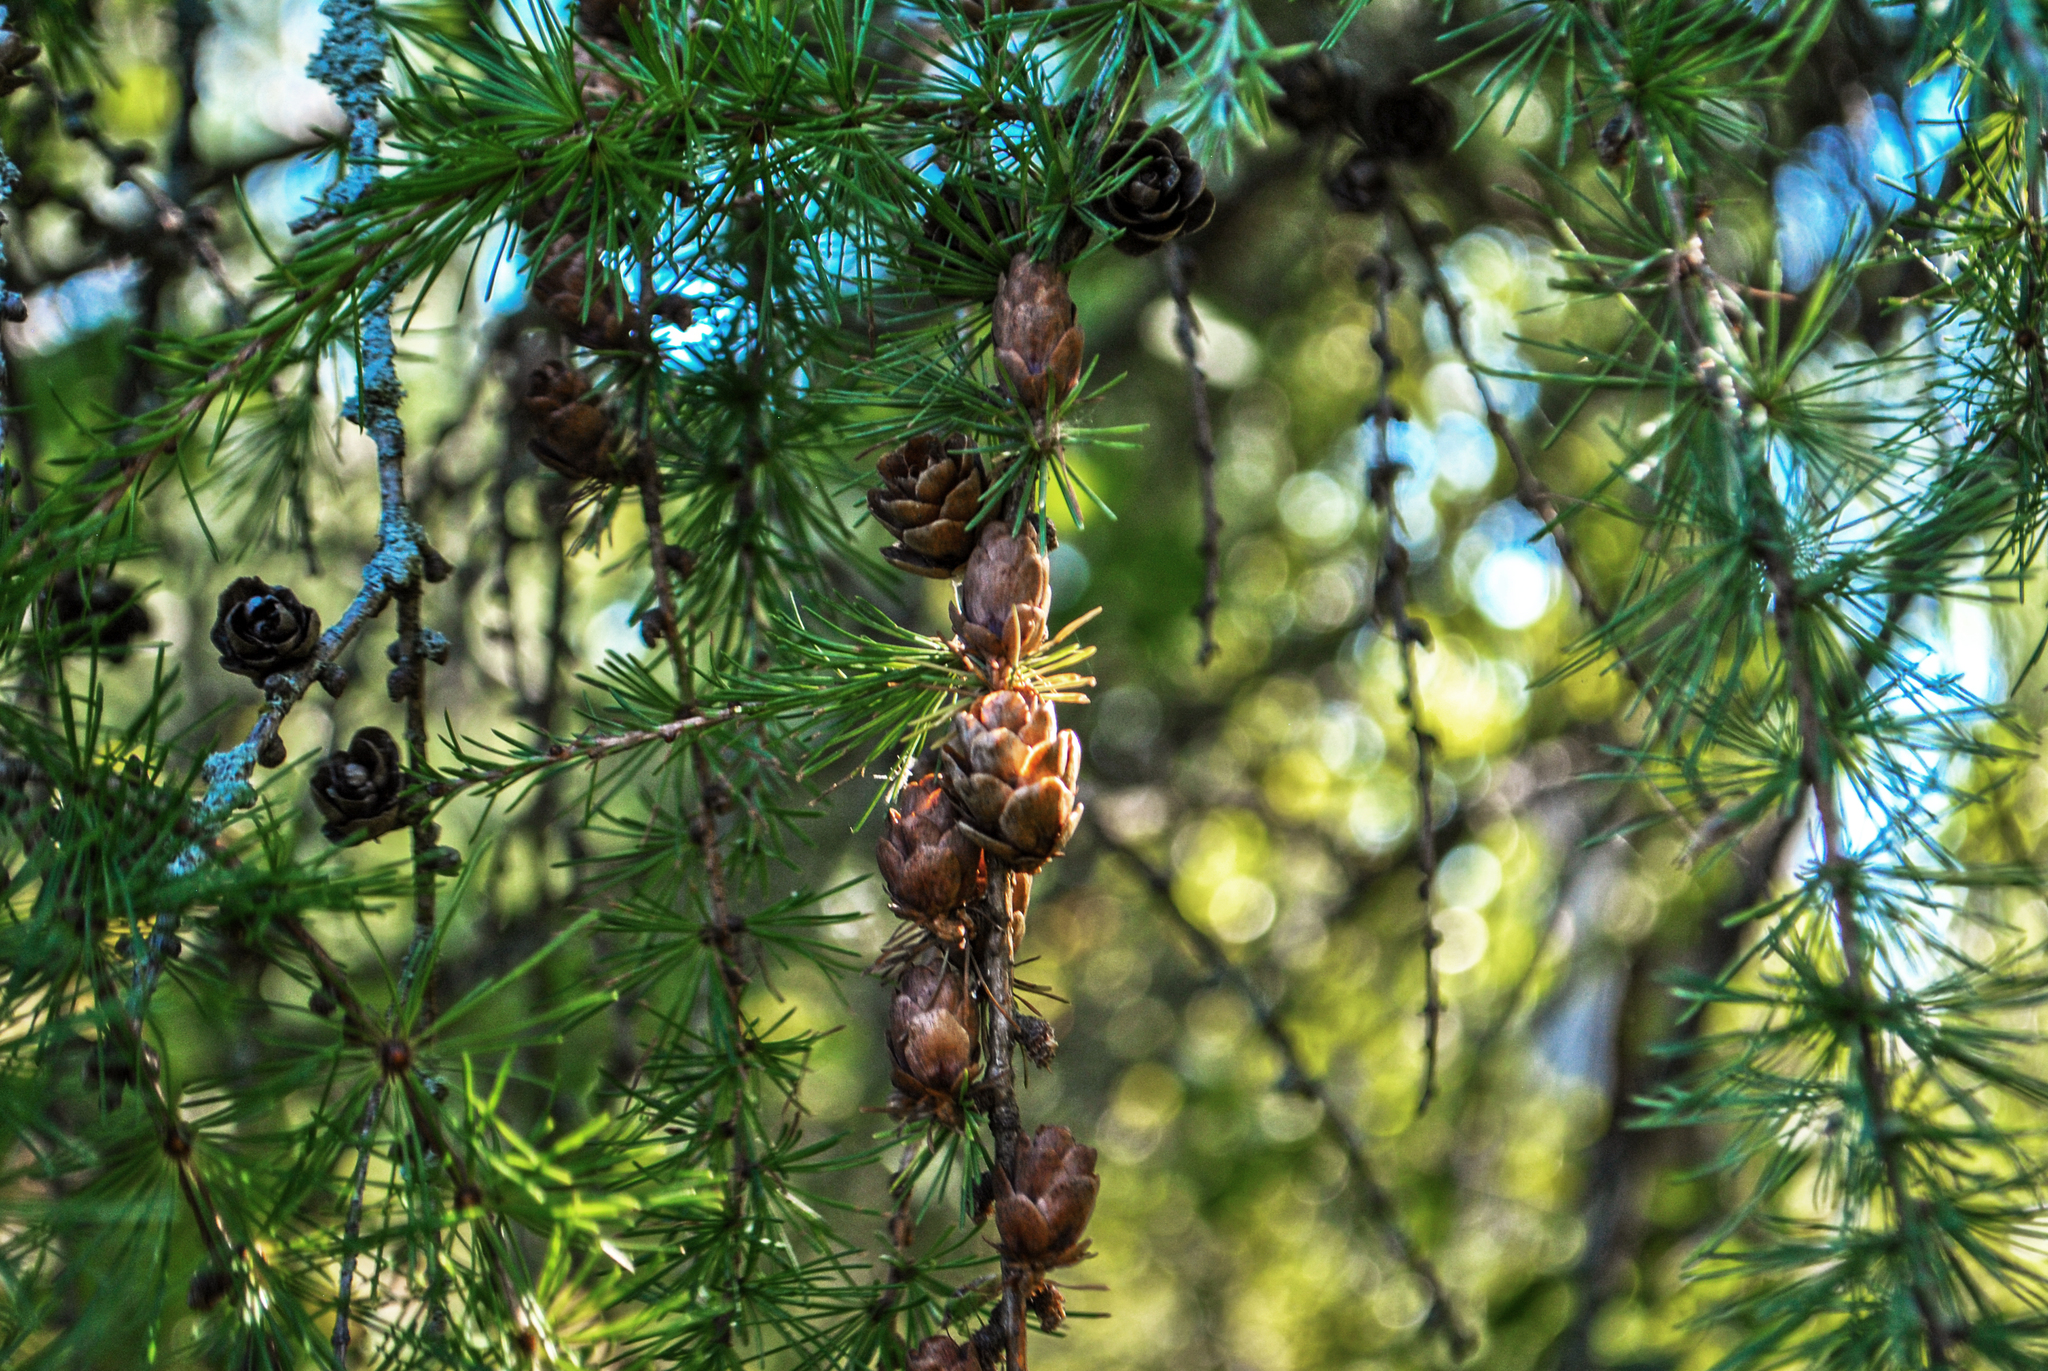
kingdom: Plantae
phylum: Tracheophyta
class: Pinopsida
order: Pinales
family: Pinaceae
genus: Larix
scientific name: Larix laricina
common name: American larch
